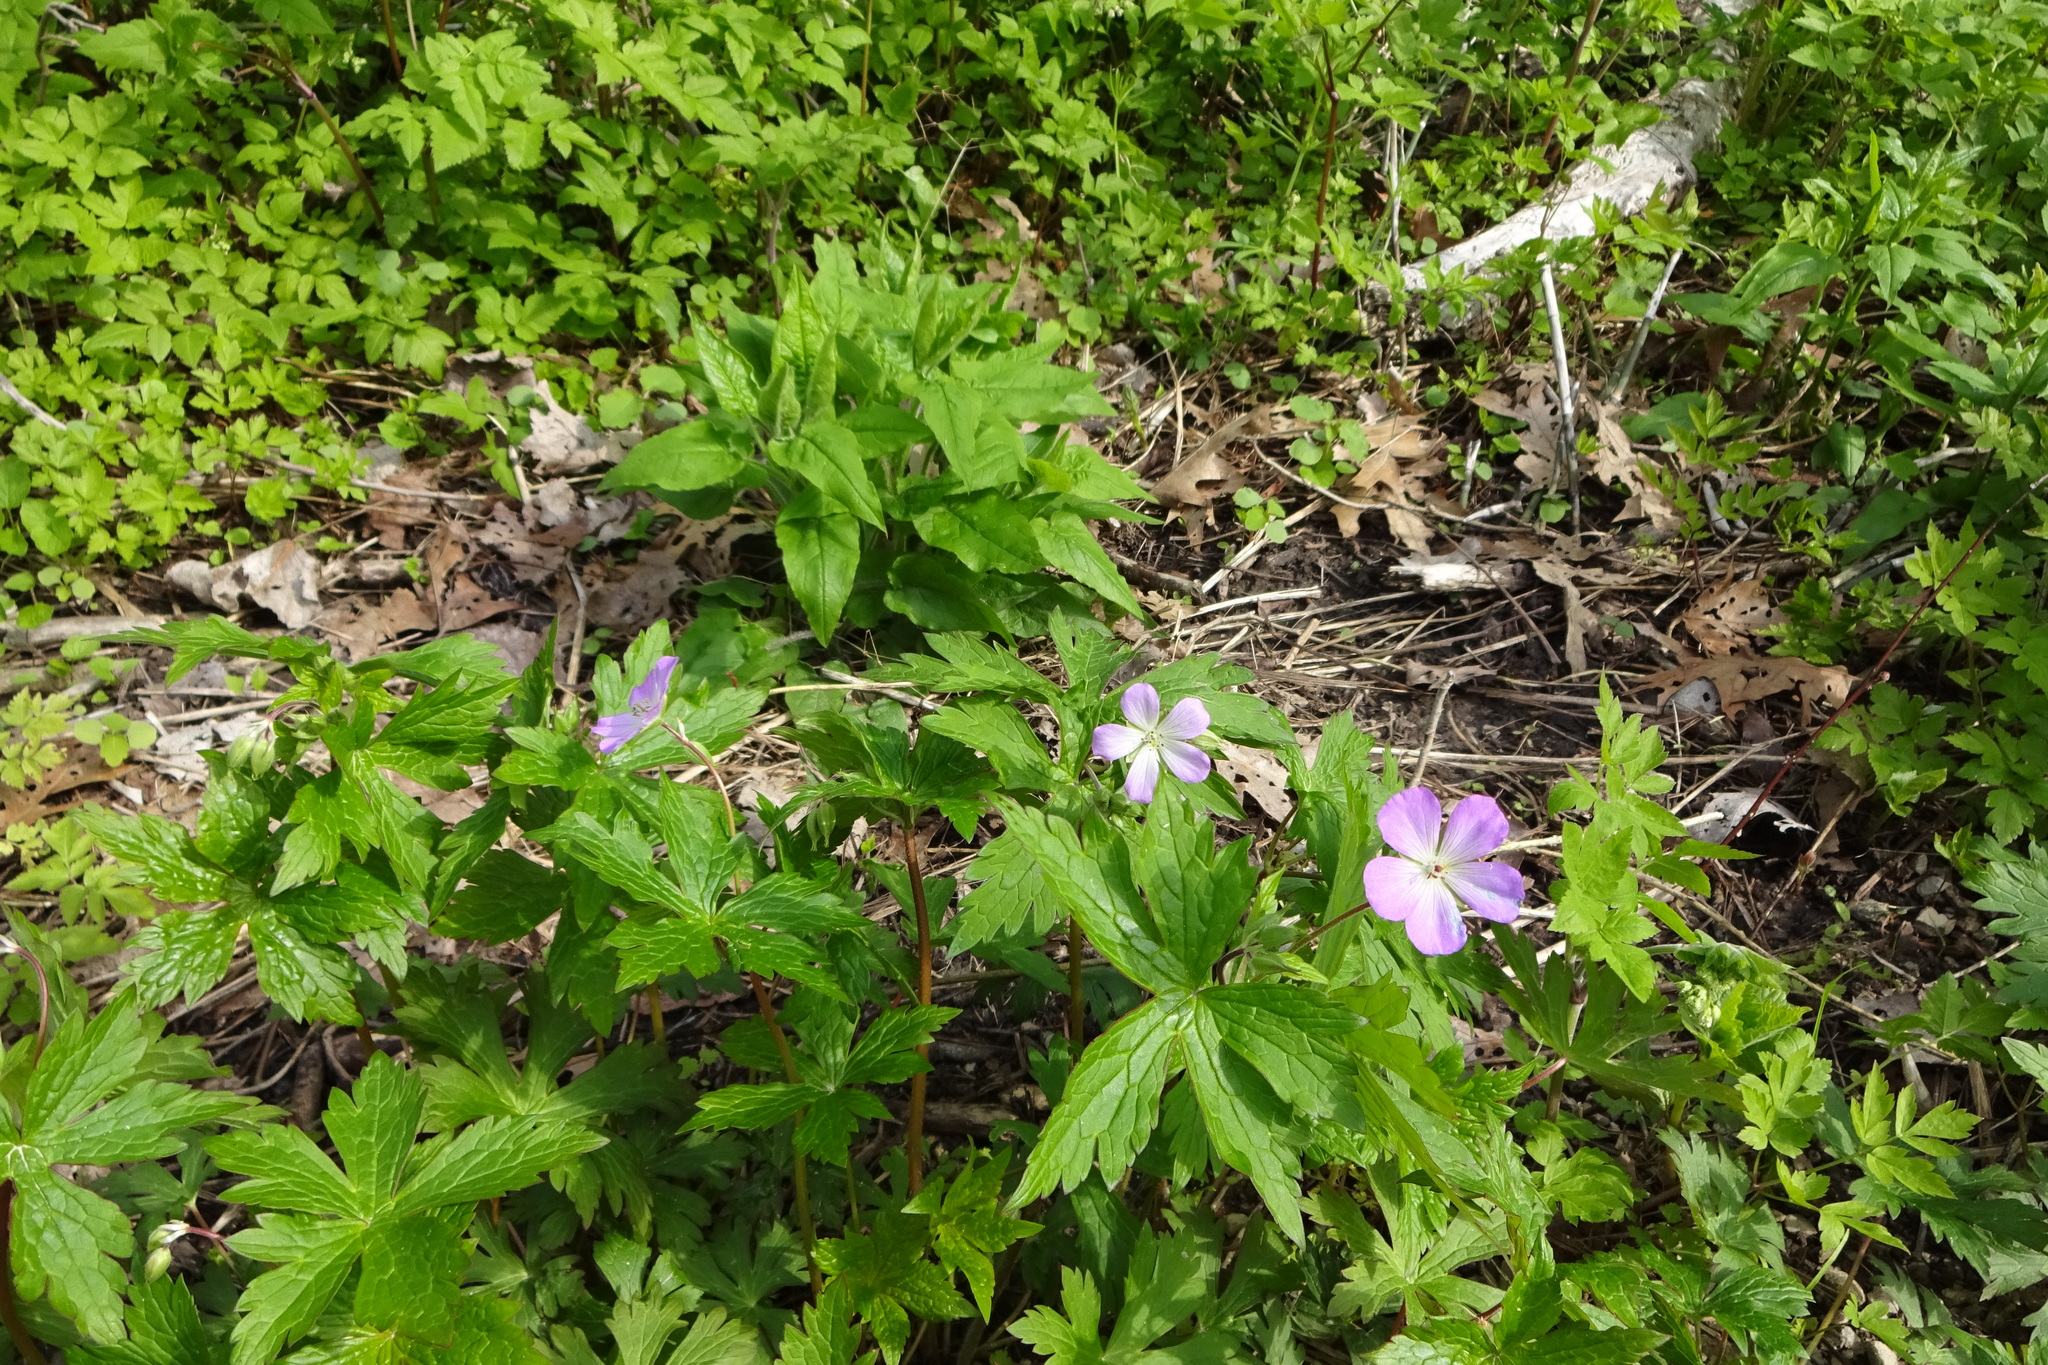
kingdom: Plantae
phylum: Tracheophyta
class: Magnoliopsida
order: Geraniales
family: Geraniaceae
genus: Geranium
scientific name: Geranium maculatum
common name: Spotted geranium
